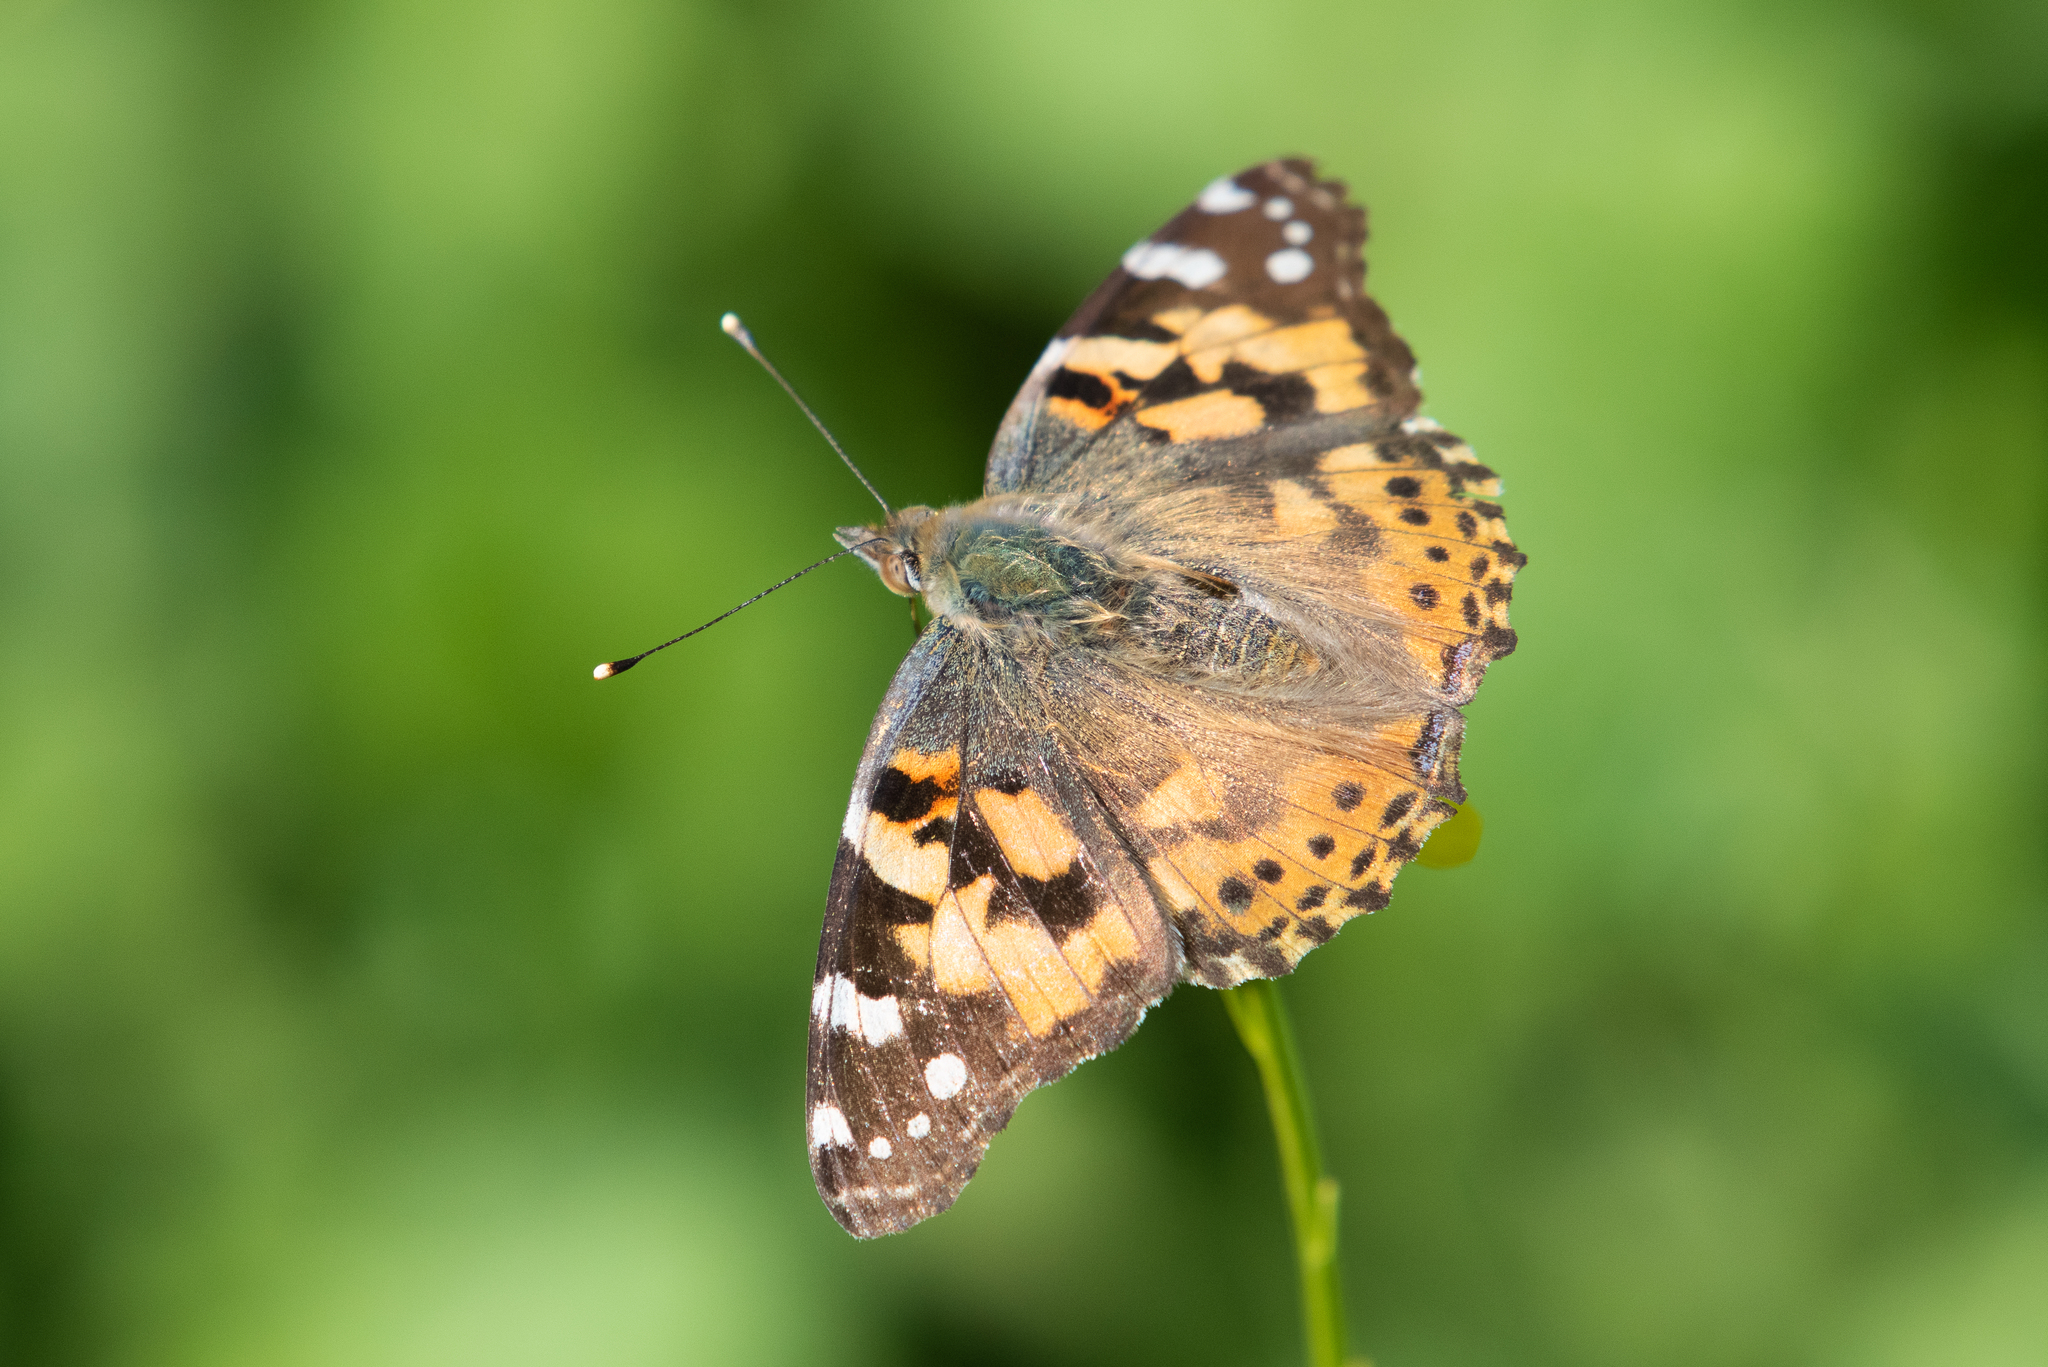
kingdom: Animalia
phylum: Arthropoda
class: Insecta
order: Lepidoptera
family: Nymphalidae
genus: Vanessa
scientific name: Vanessa cardui
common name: Painted lady
